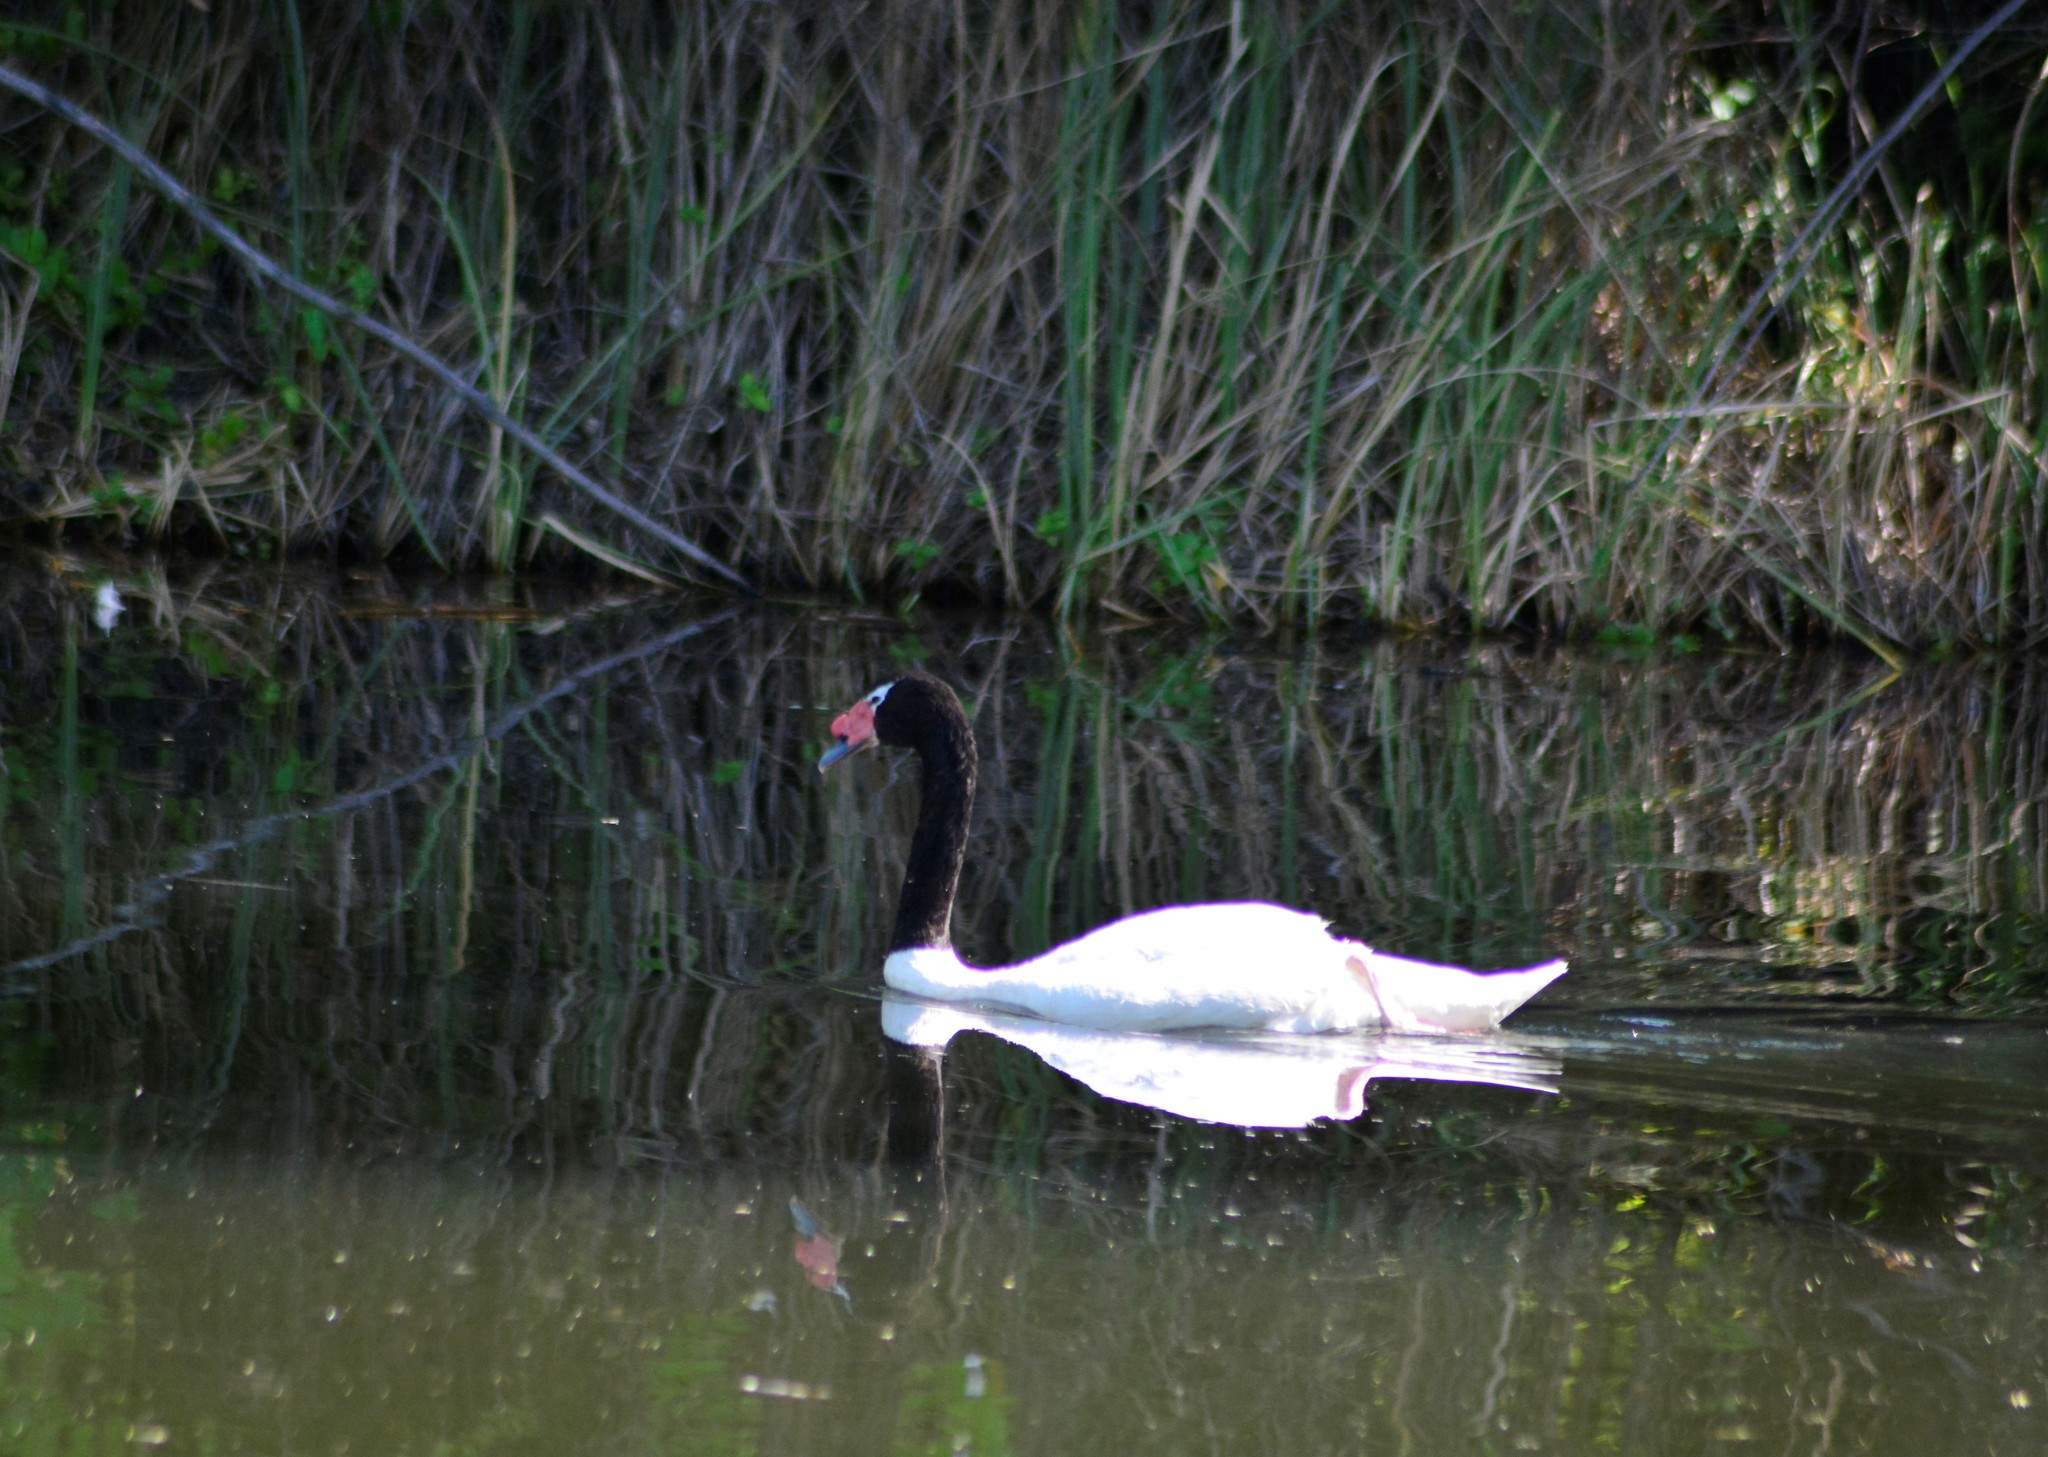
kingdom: Animalia
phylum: Chordata
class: Aves
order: Anseriformes
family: Anatidae
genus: Cygnus
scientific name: Cygnus melancoryphus
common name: Black-necked swan
